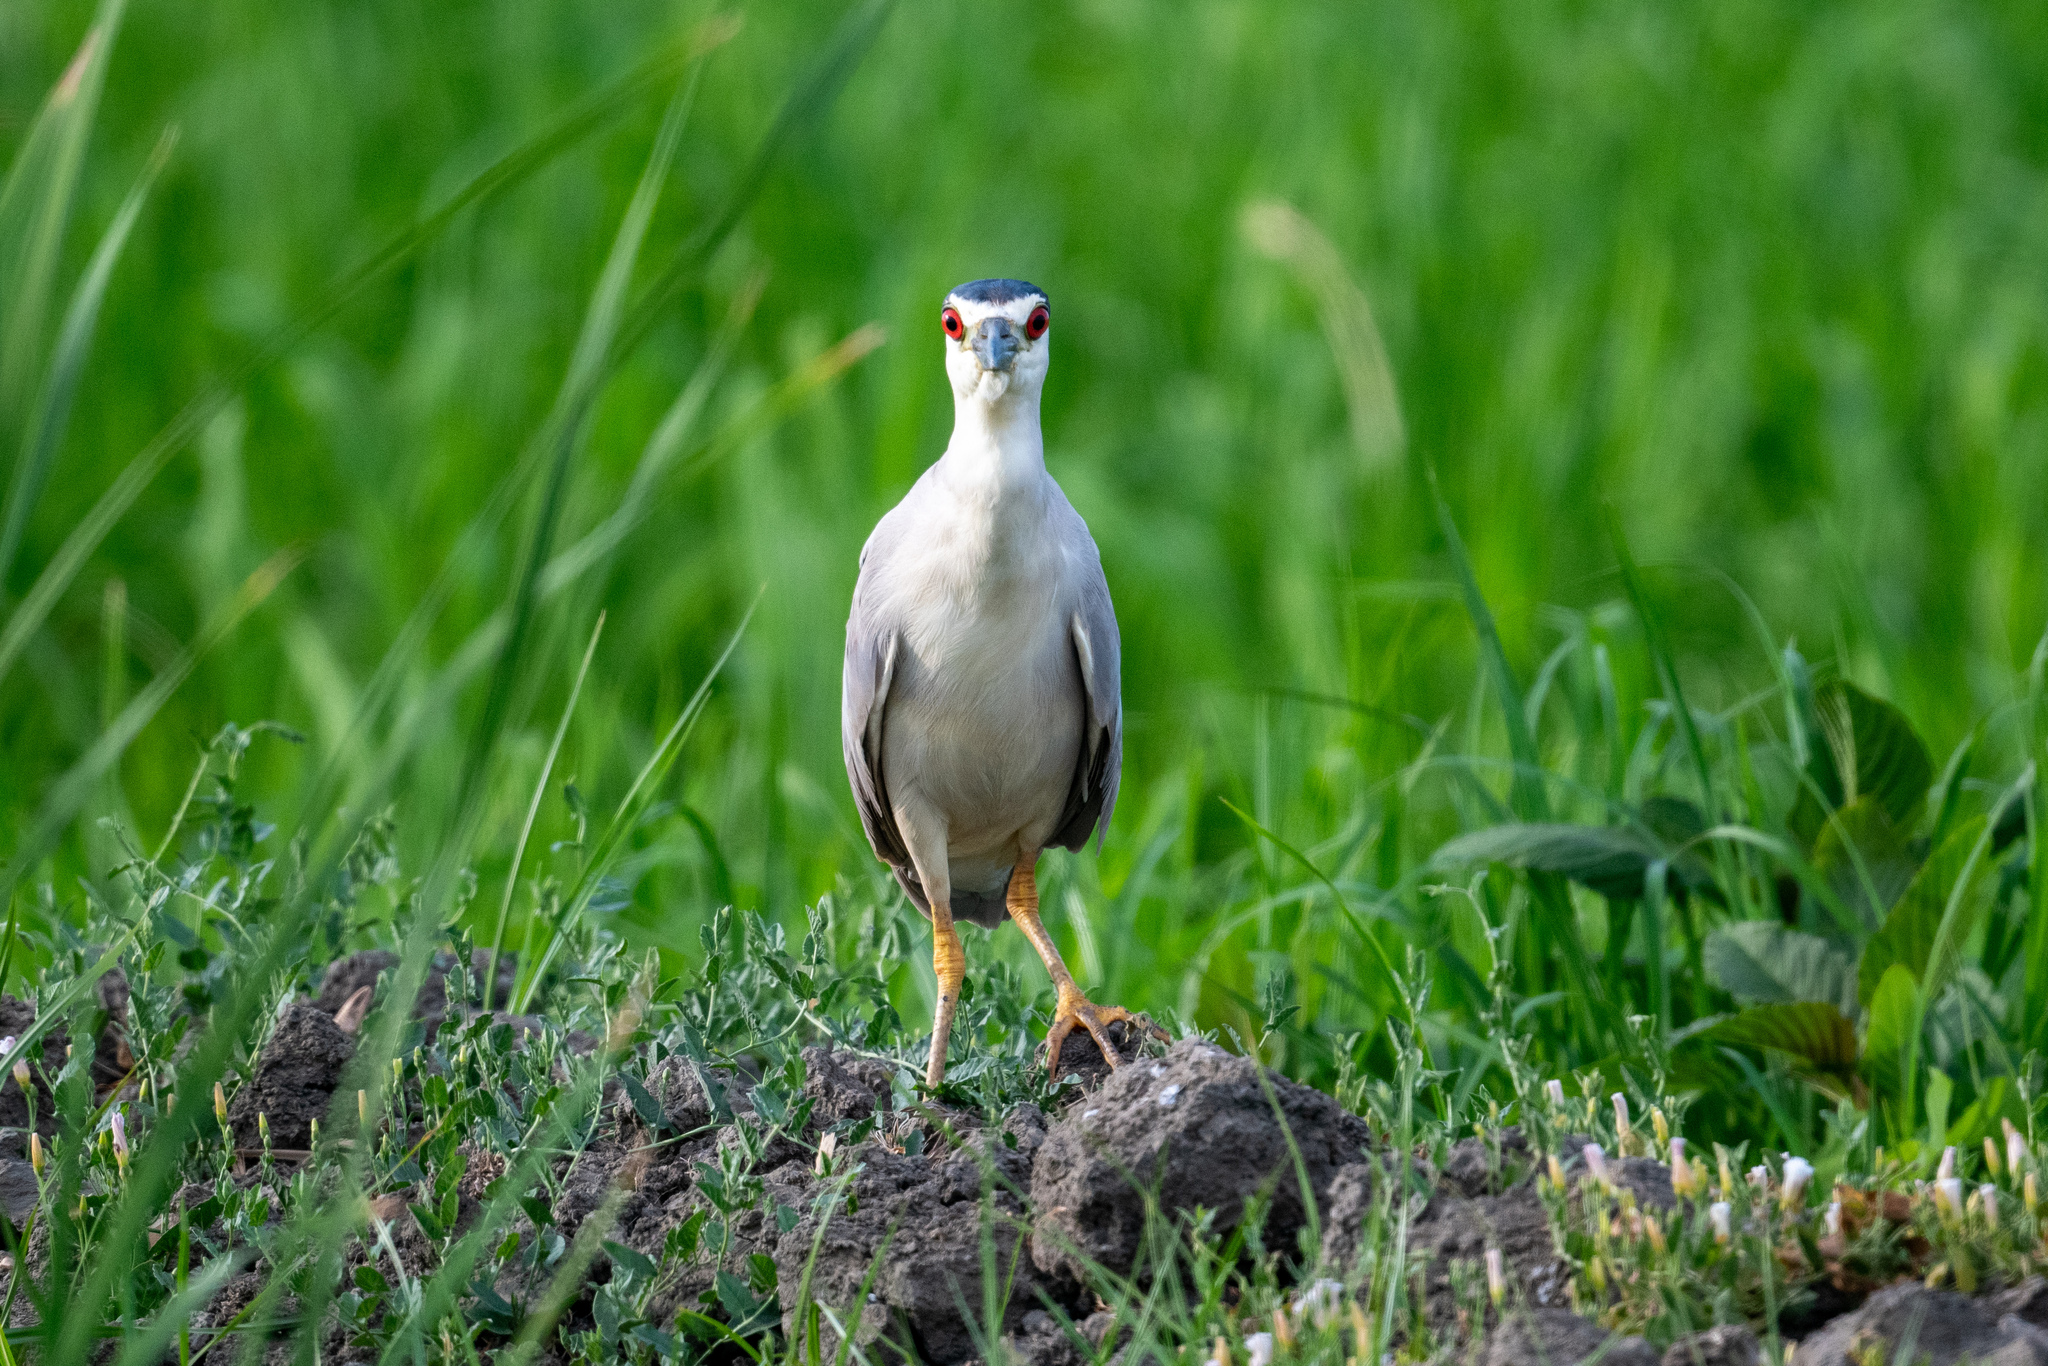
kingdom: Animalia
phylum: Chordata
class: Aves
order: Pelecaniformes
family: Ardeidae
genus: Nycticorax
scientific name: Nycticorax nycticorax
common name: Black-crowned night heron
